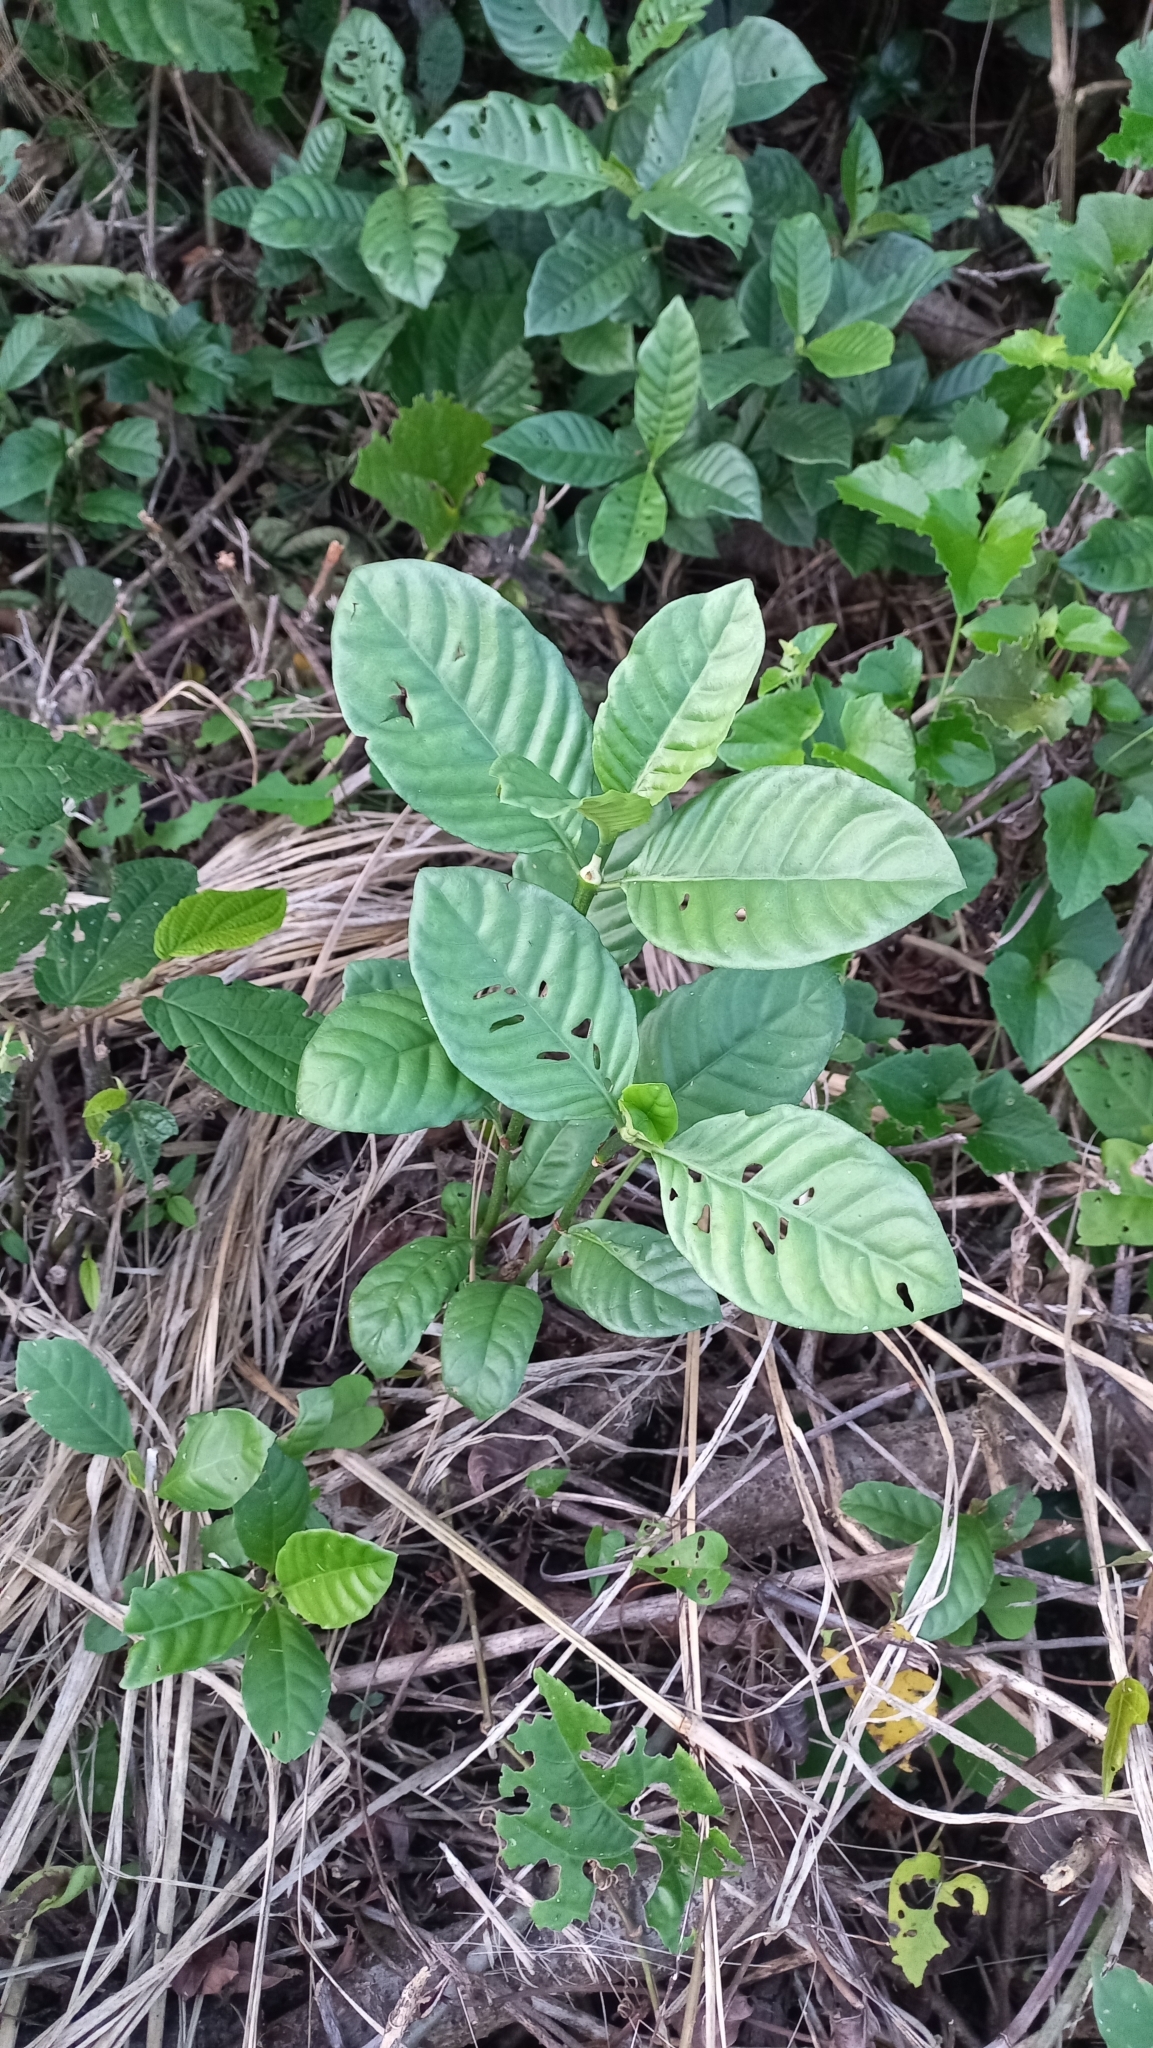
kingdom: Plantae
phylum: Tracheophyta
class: Magnoliopsida
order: Gentianales
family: Rubiaceae
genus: Psychotria
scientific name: Psychotria carthagenensis
